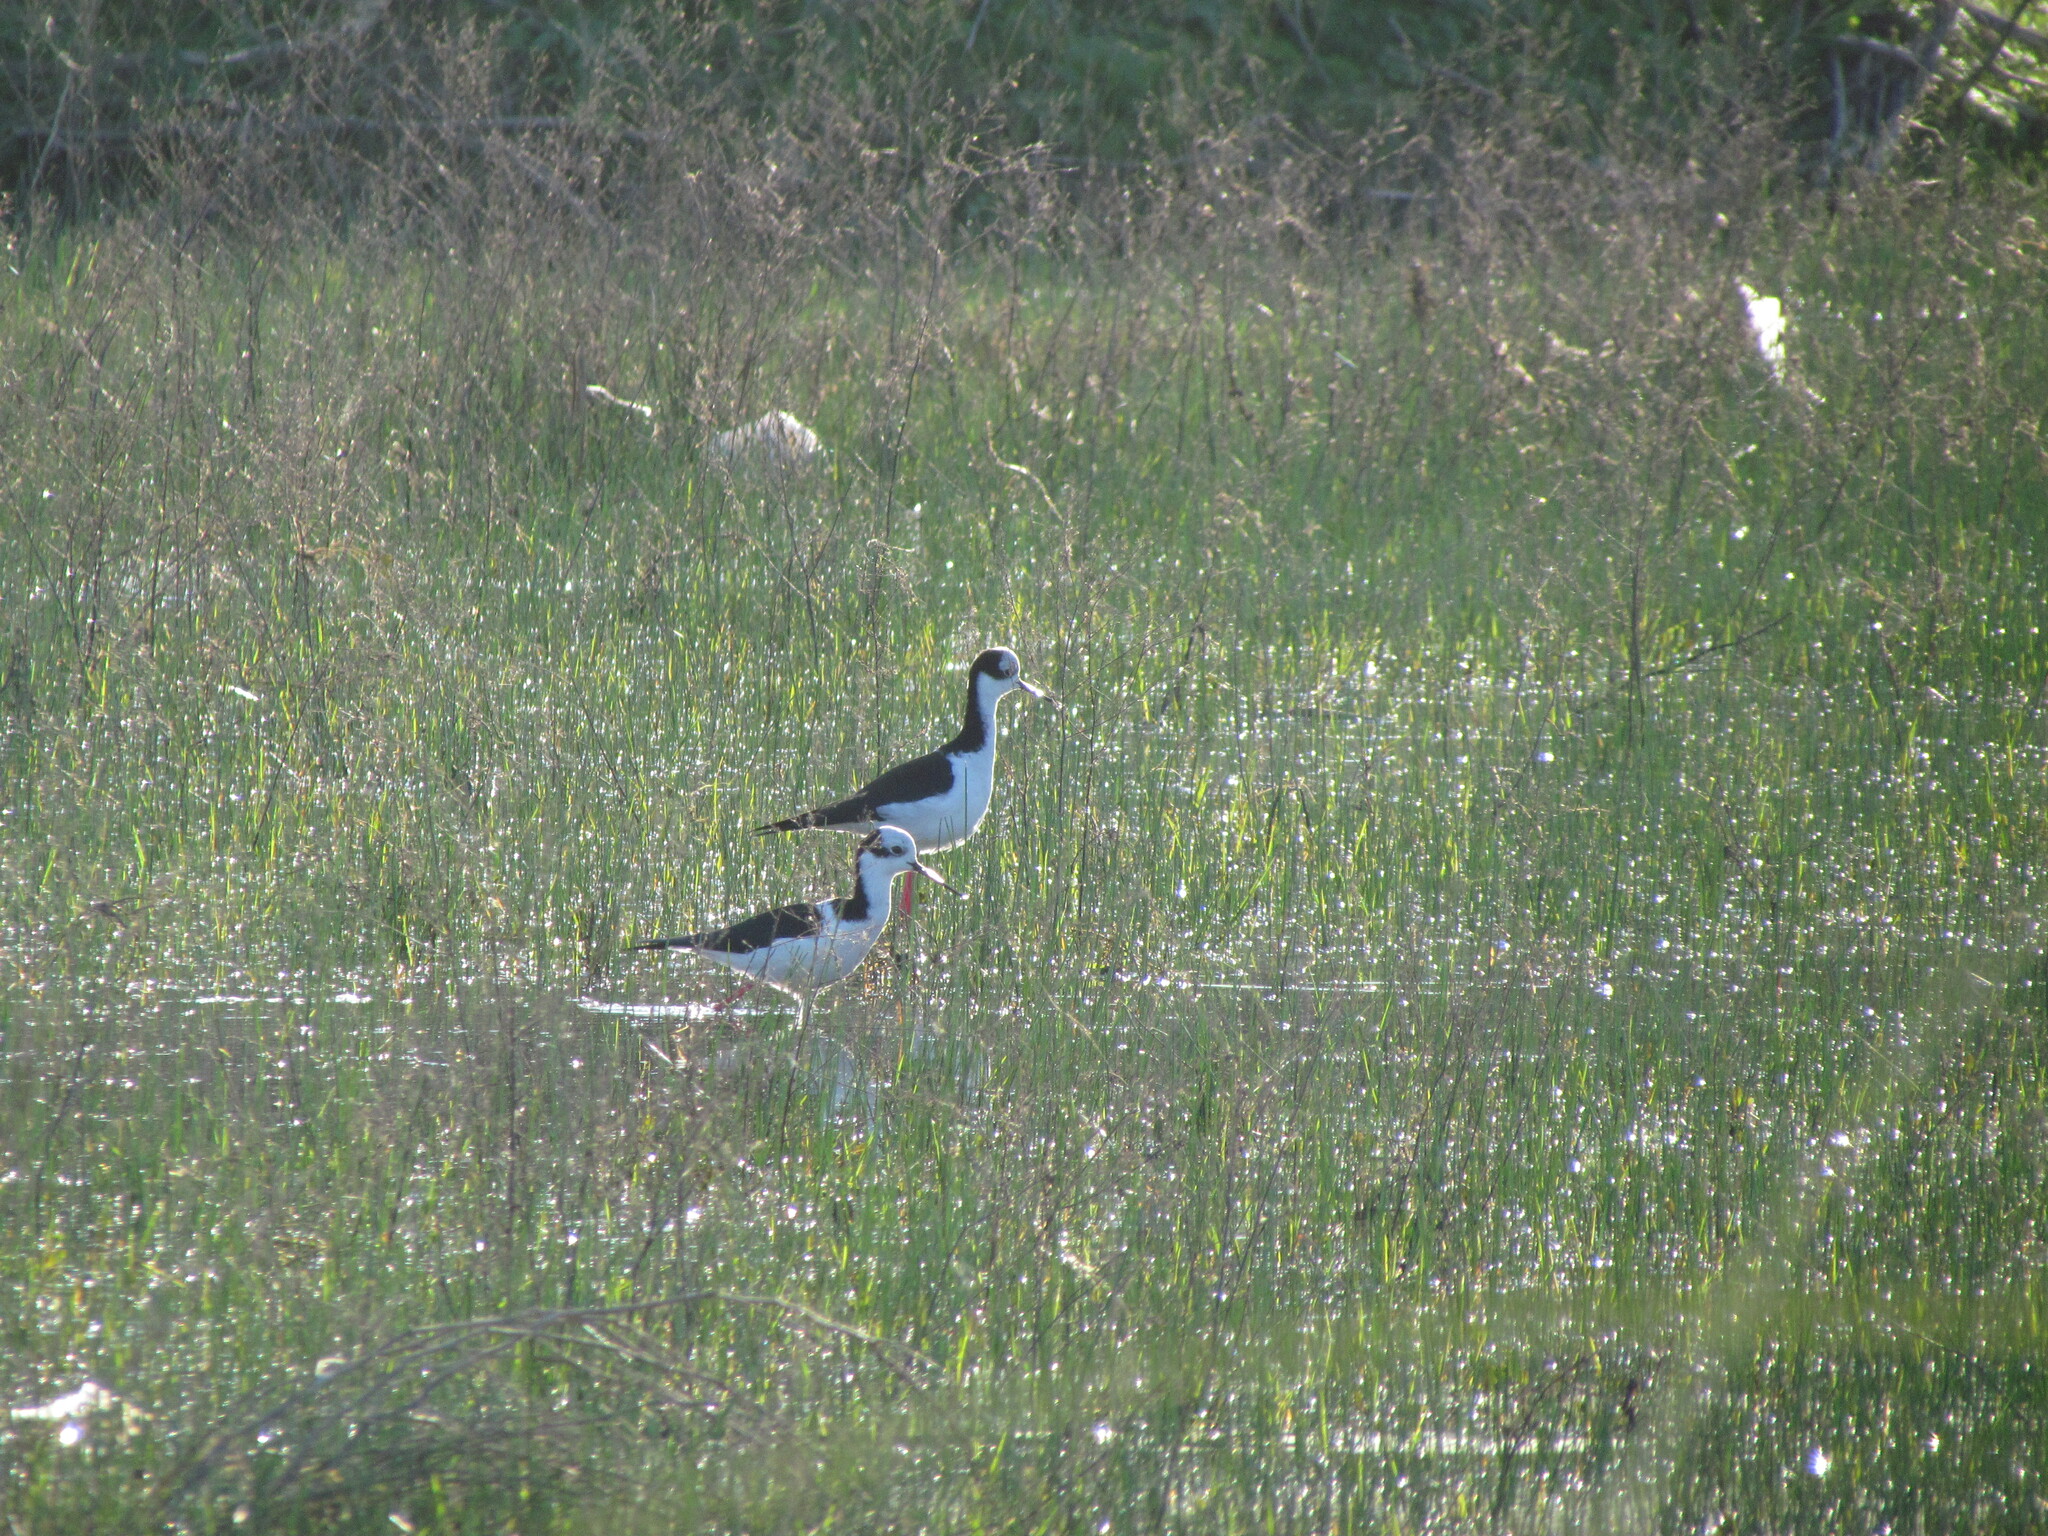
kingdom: Animalia
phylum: Chordata
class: Aves
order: Charadriiformes
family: Recurvirostridae
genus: Himantopus
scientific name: Himantopus mexicanus
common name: Black-necked stilt
